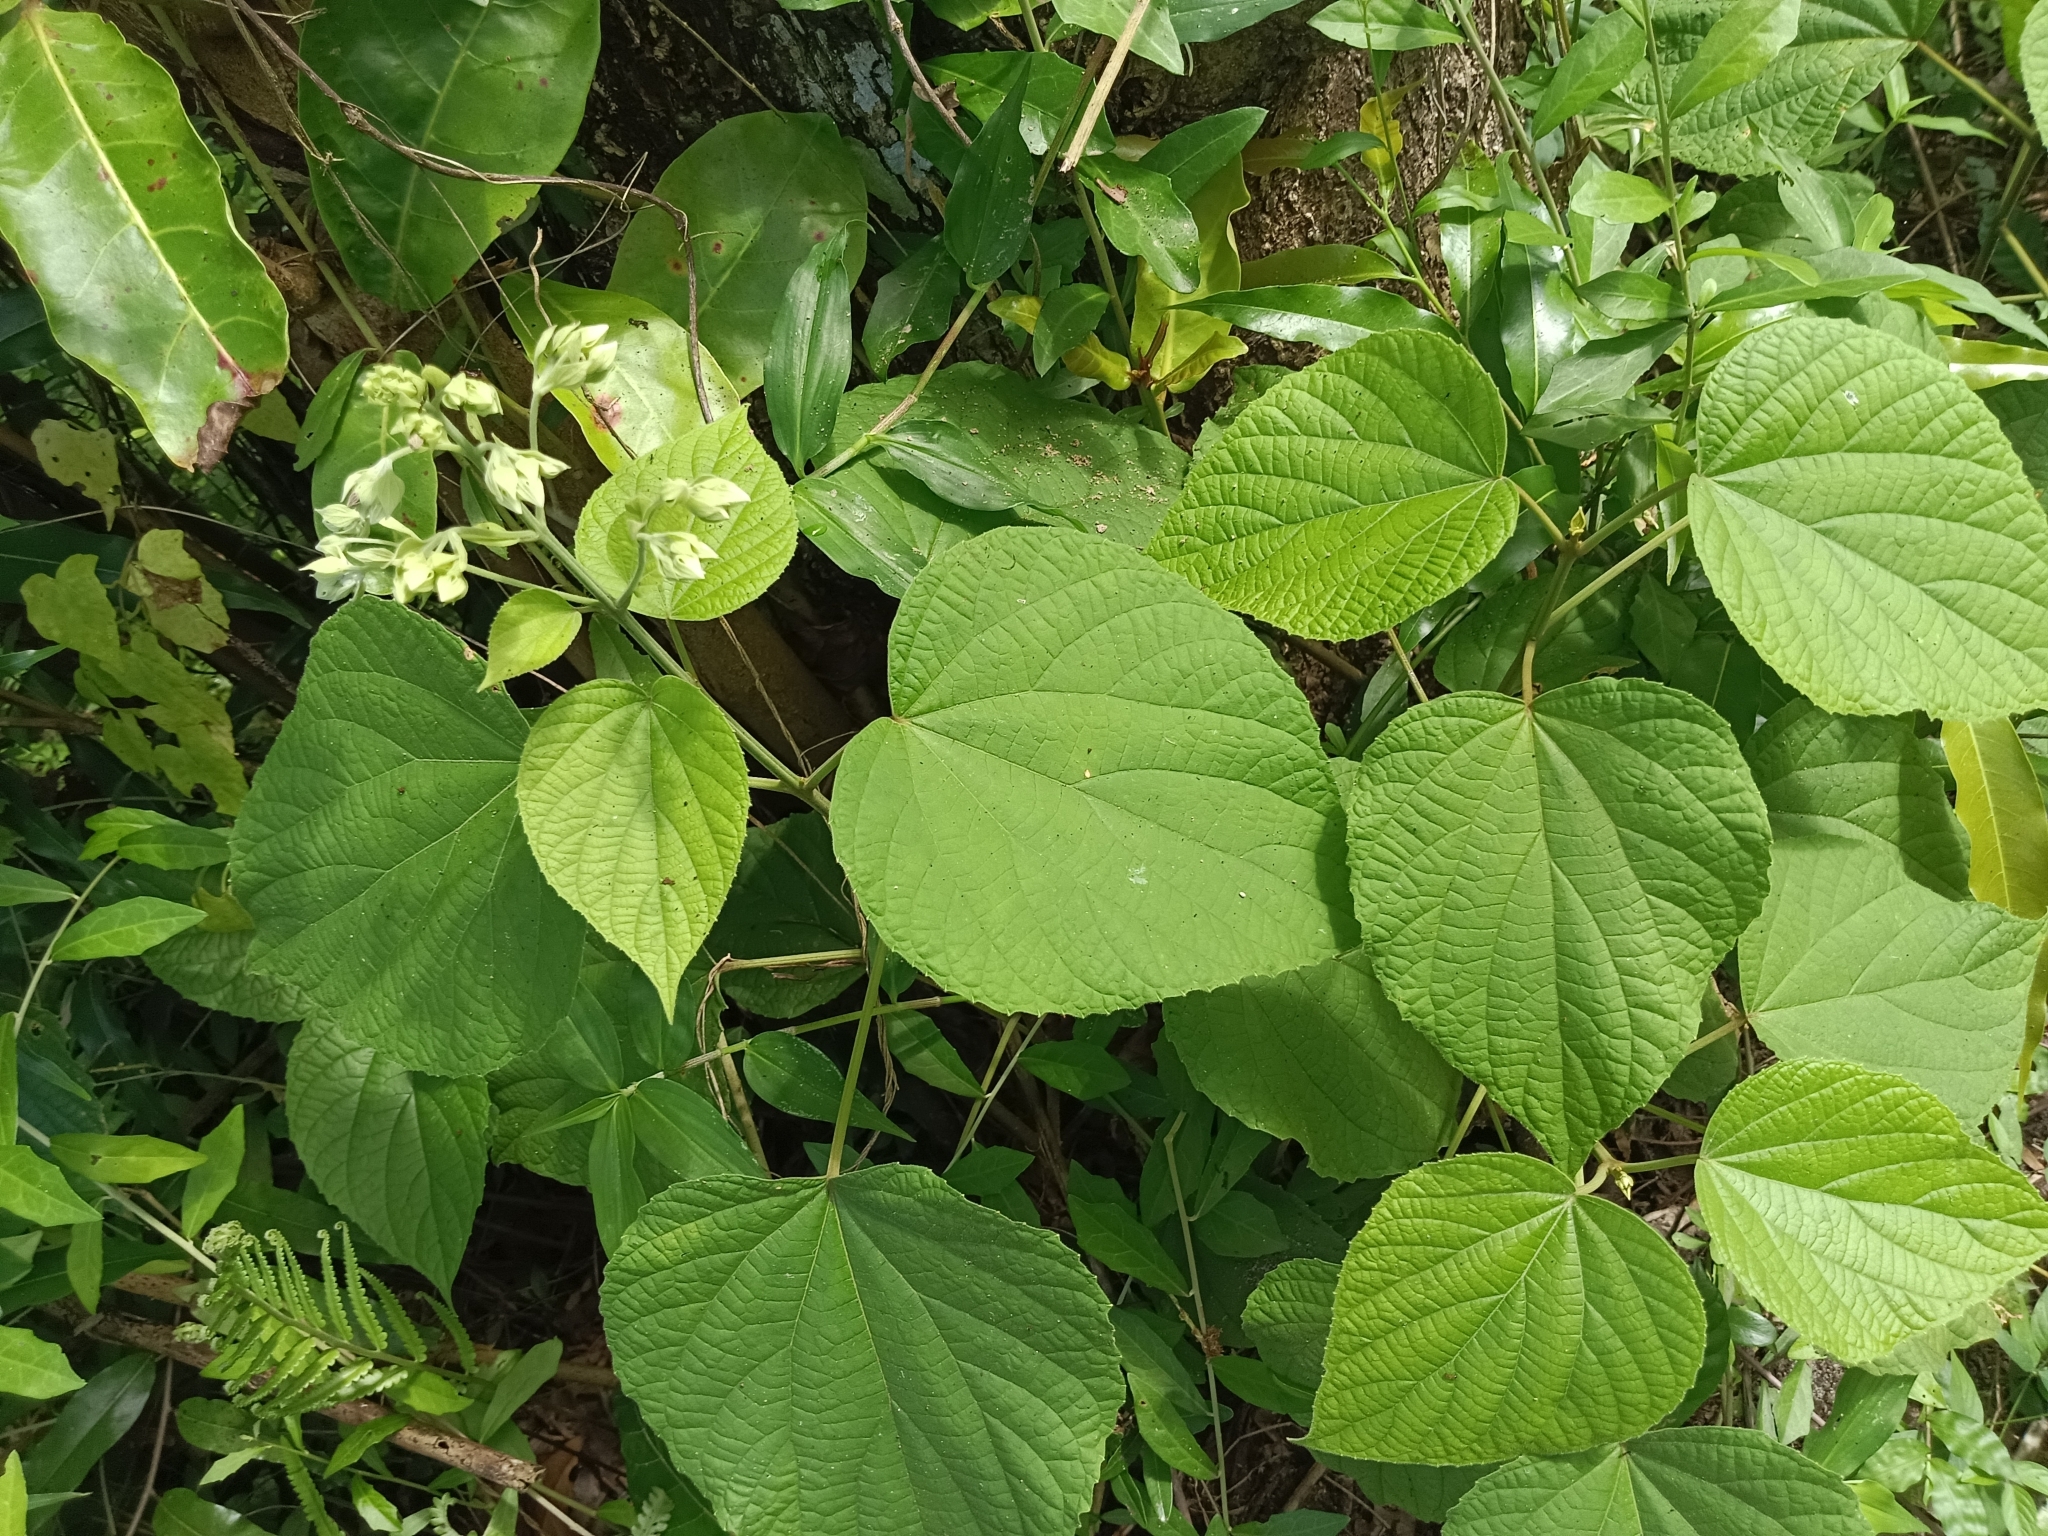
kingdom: Plantae
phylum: Tracheophyta
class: Magnoliopsida
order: Lamiales
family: Lamiaceae
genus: Clerodendrum
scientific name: Clerodendrum infortunatum
